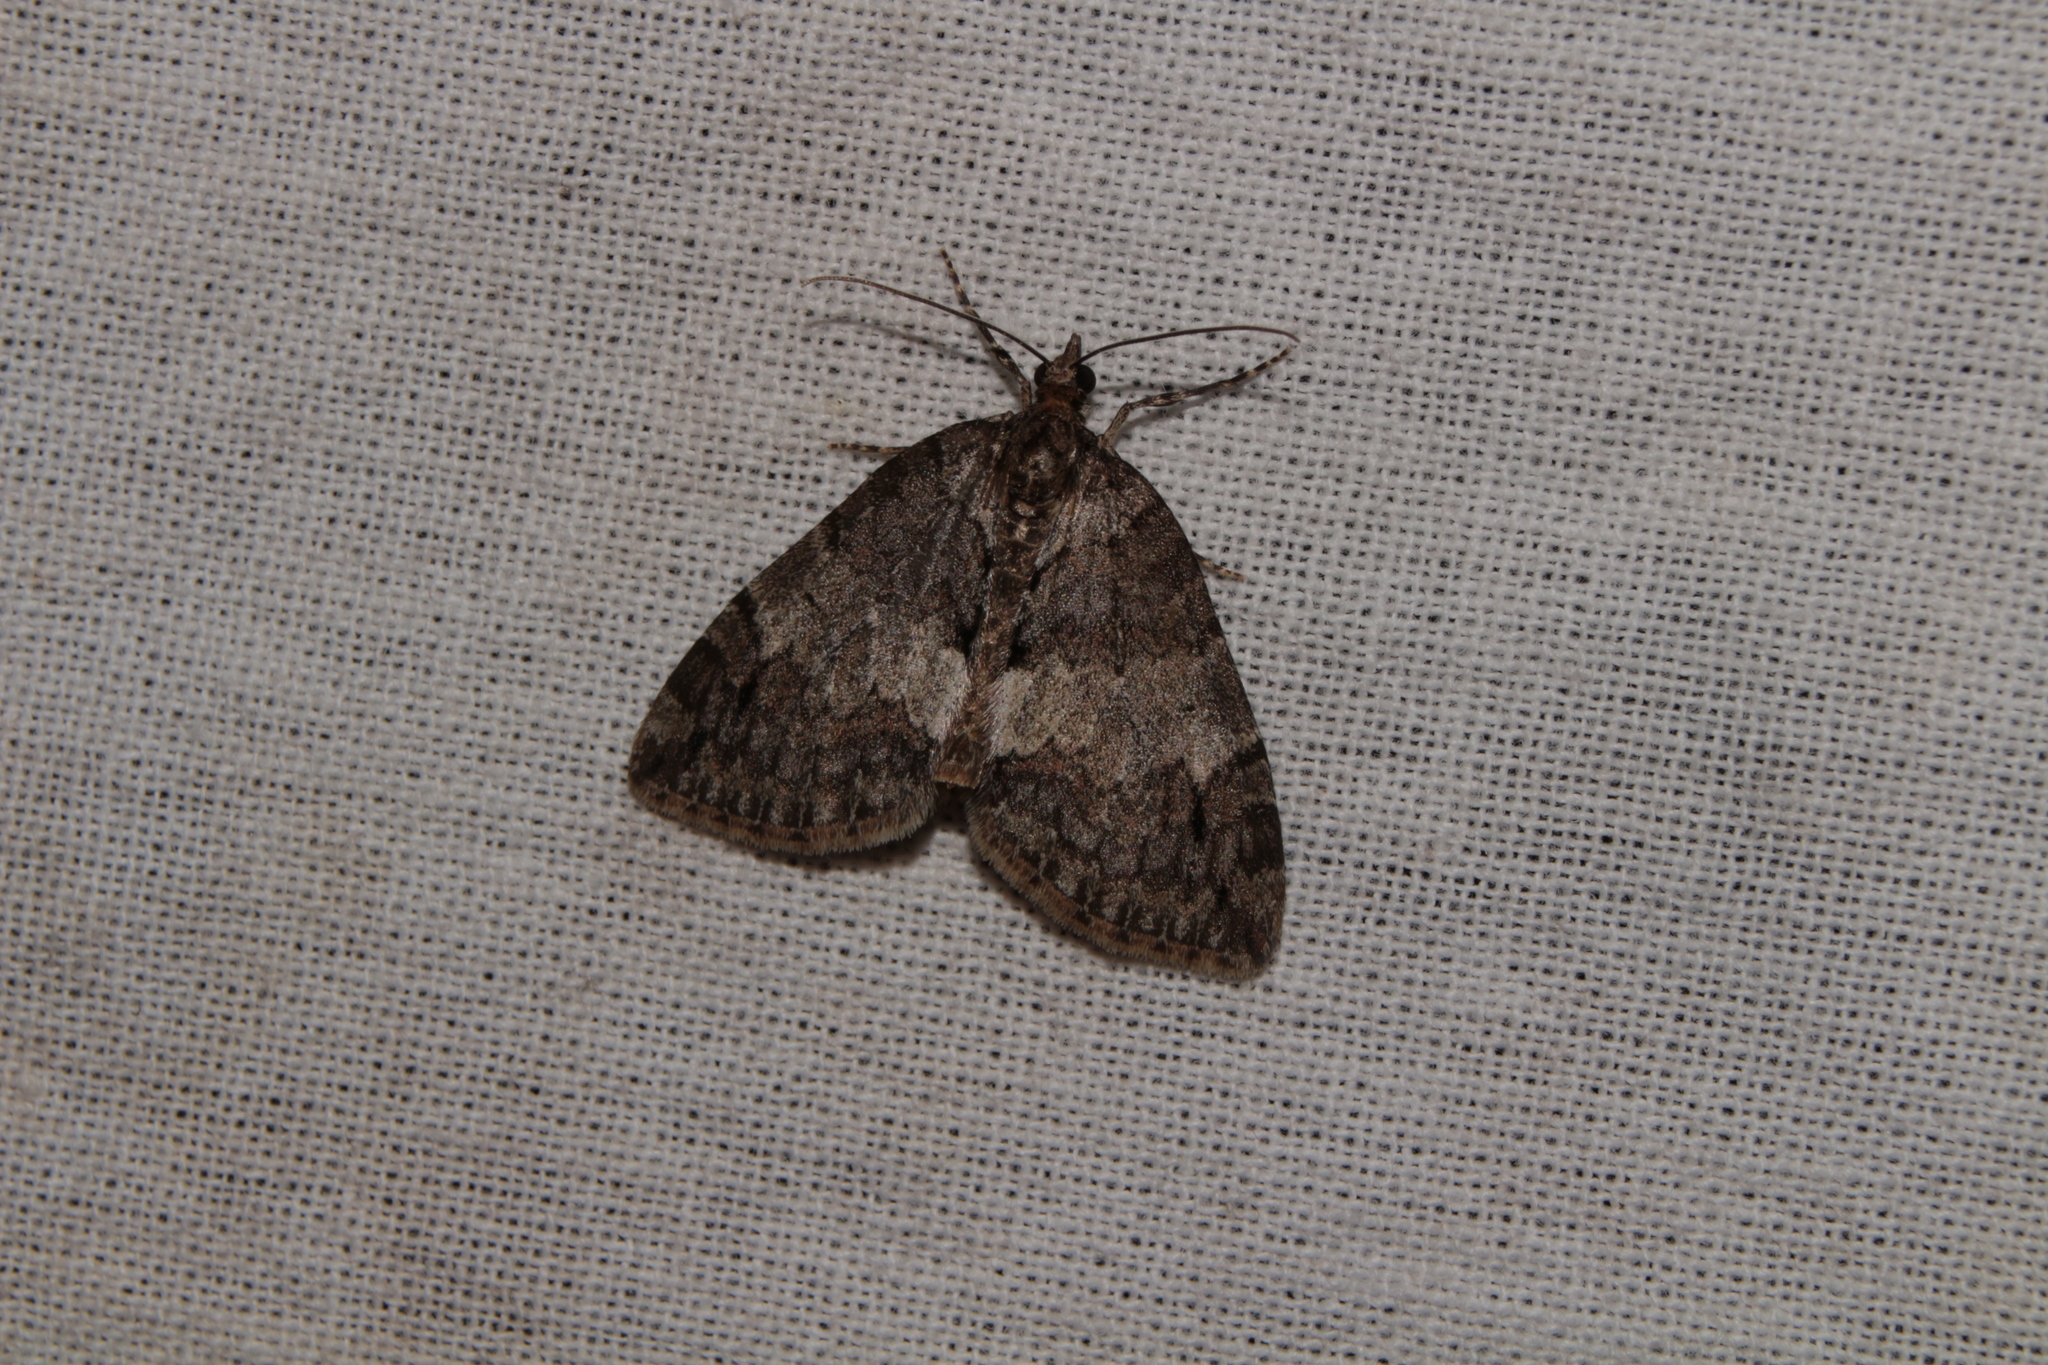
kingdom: Animalia
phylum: Arthropoda
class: Insecta
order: Lepidoptera
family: Geometridae
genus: Hydriomena
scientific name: Hydriomena impluviata
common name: May highflyer
